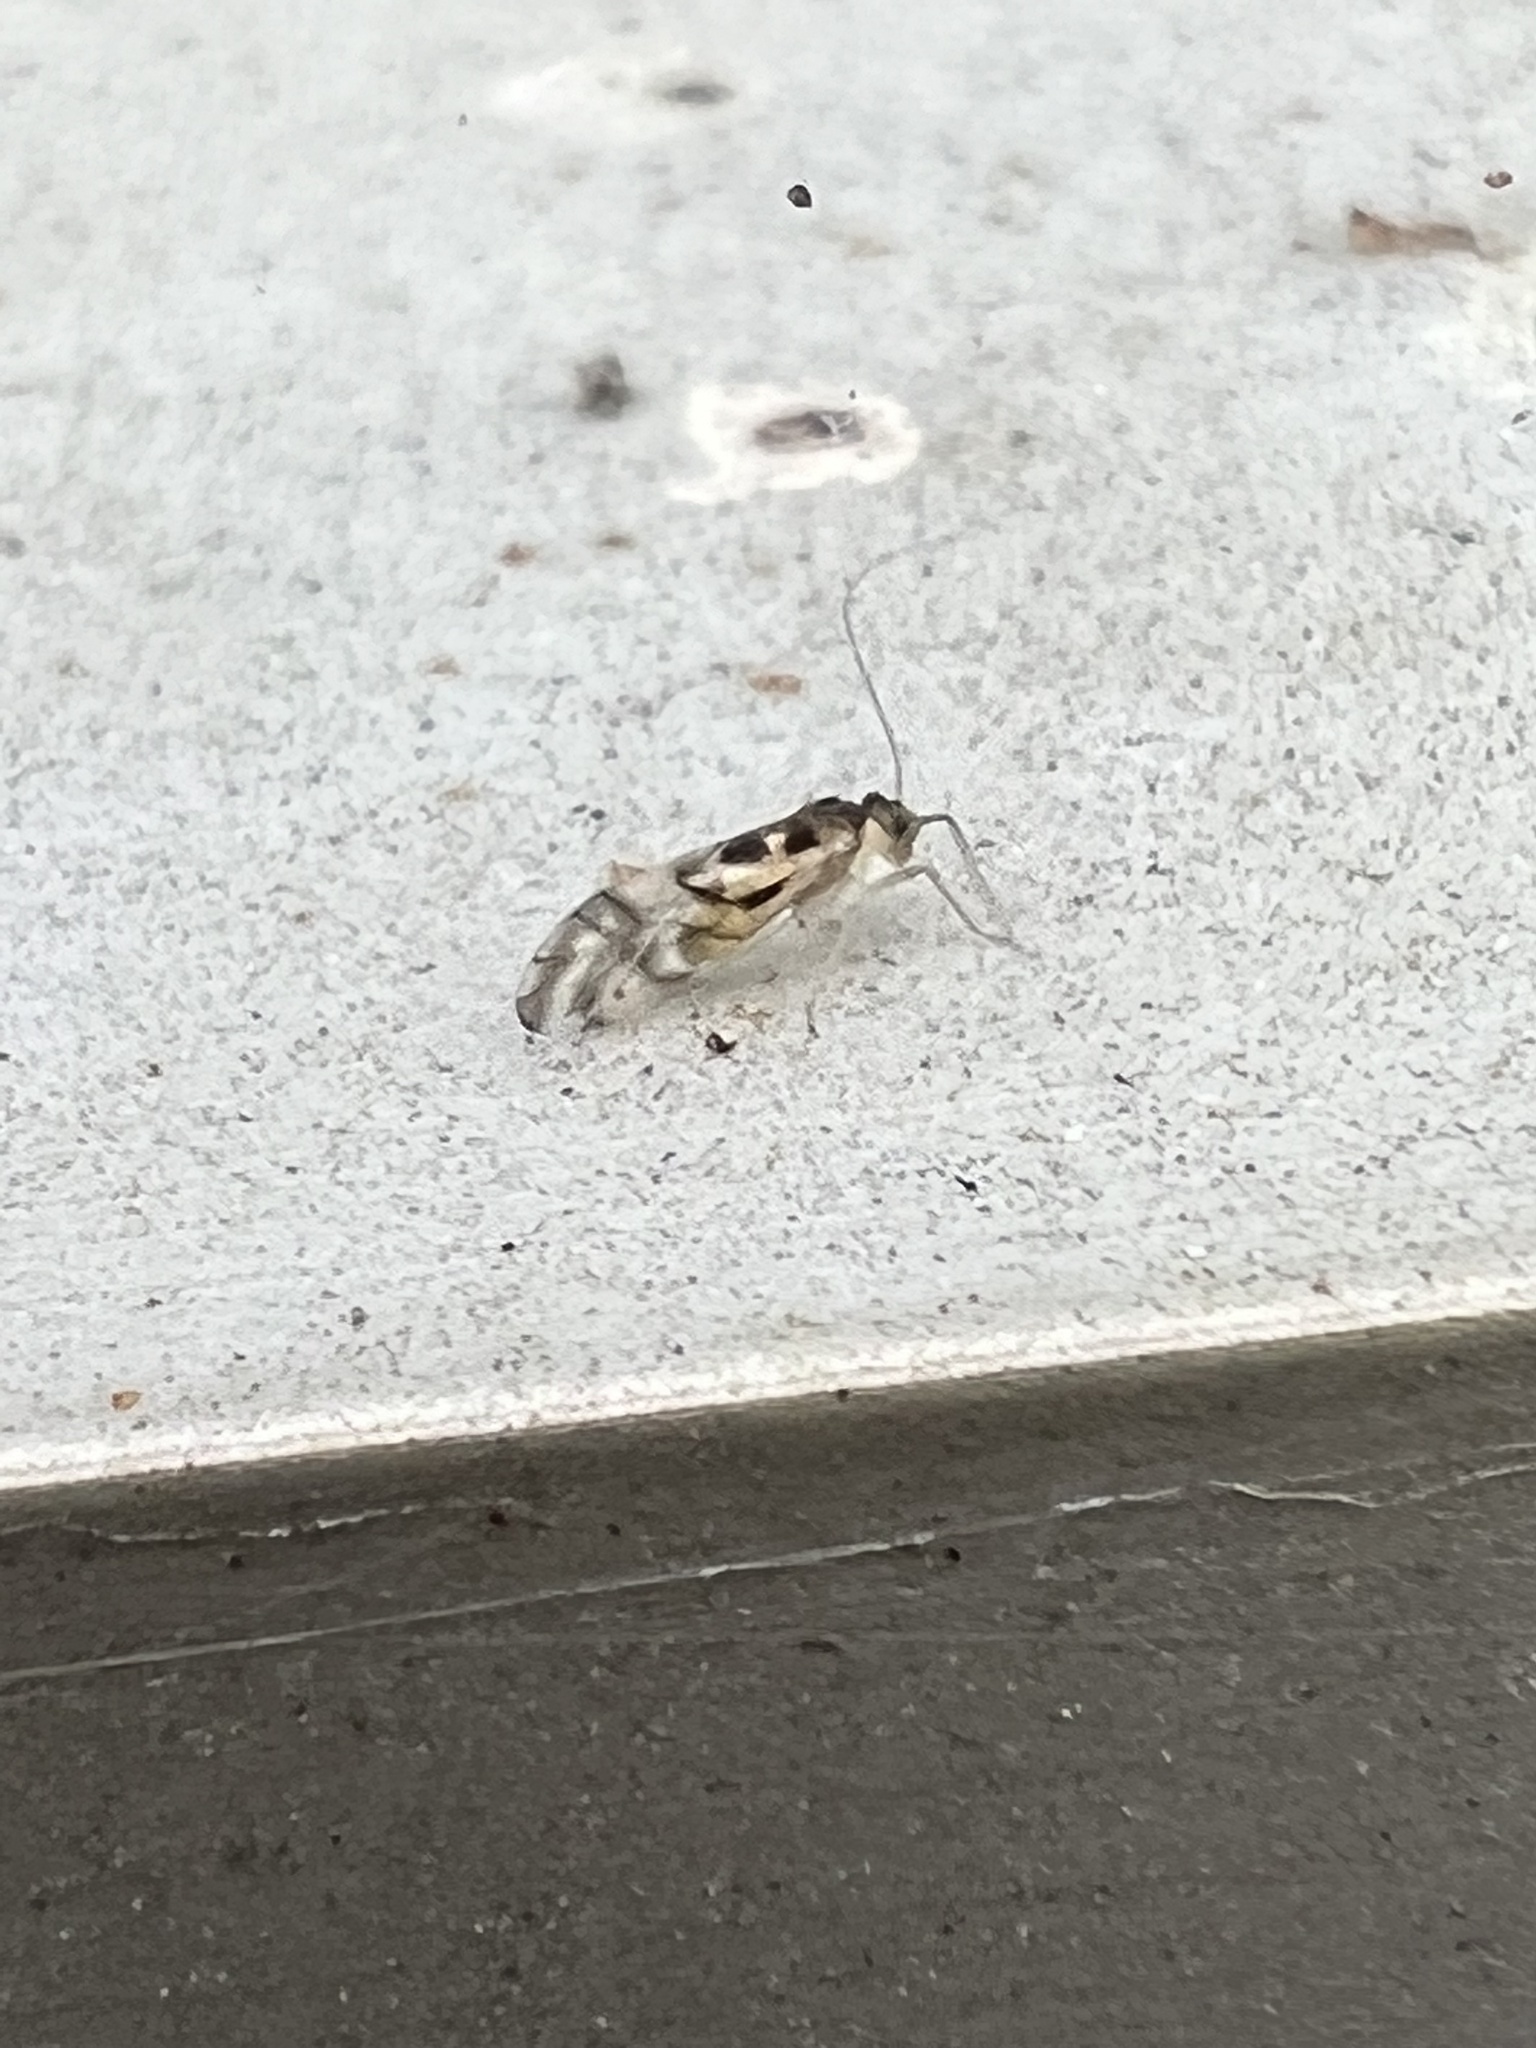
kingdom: Animalia
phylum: Arthropoda
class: Insecta
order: Psocodea
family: Stenopsocidae
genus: Graphopsocus
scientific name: Graphopsocus cruciatus
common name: Lizard bark louse
